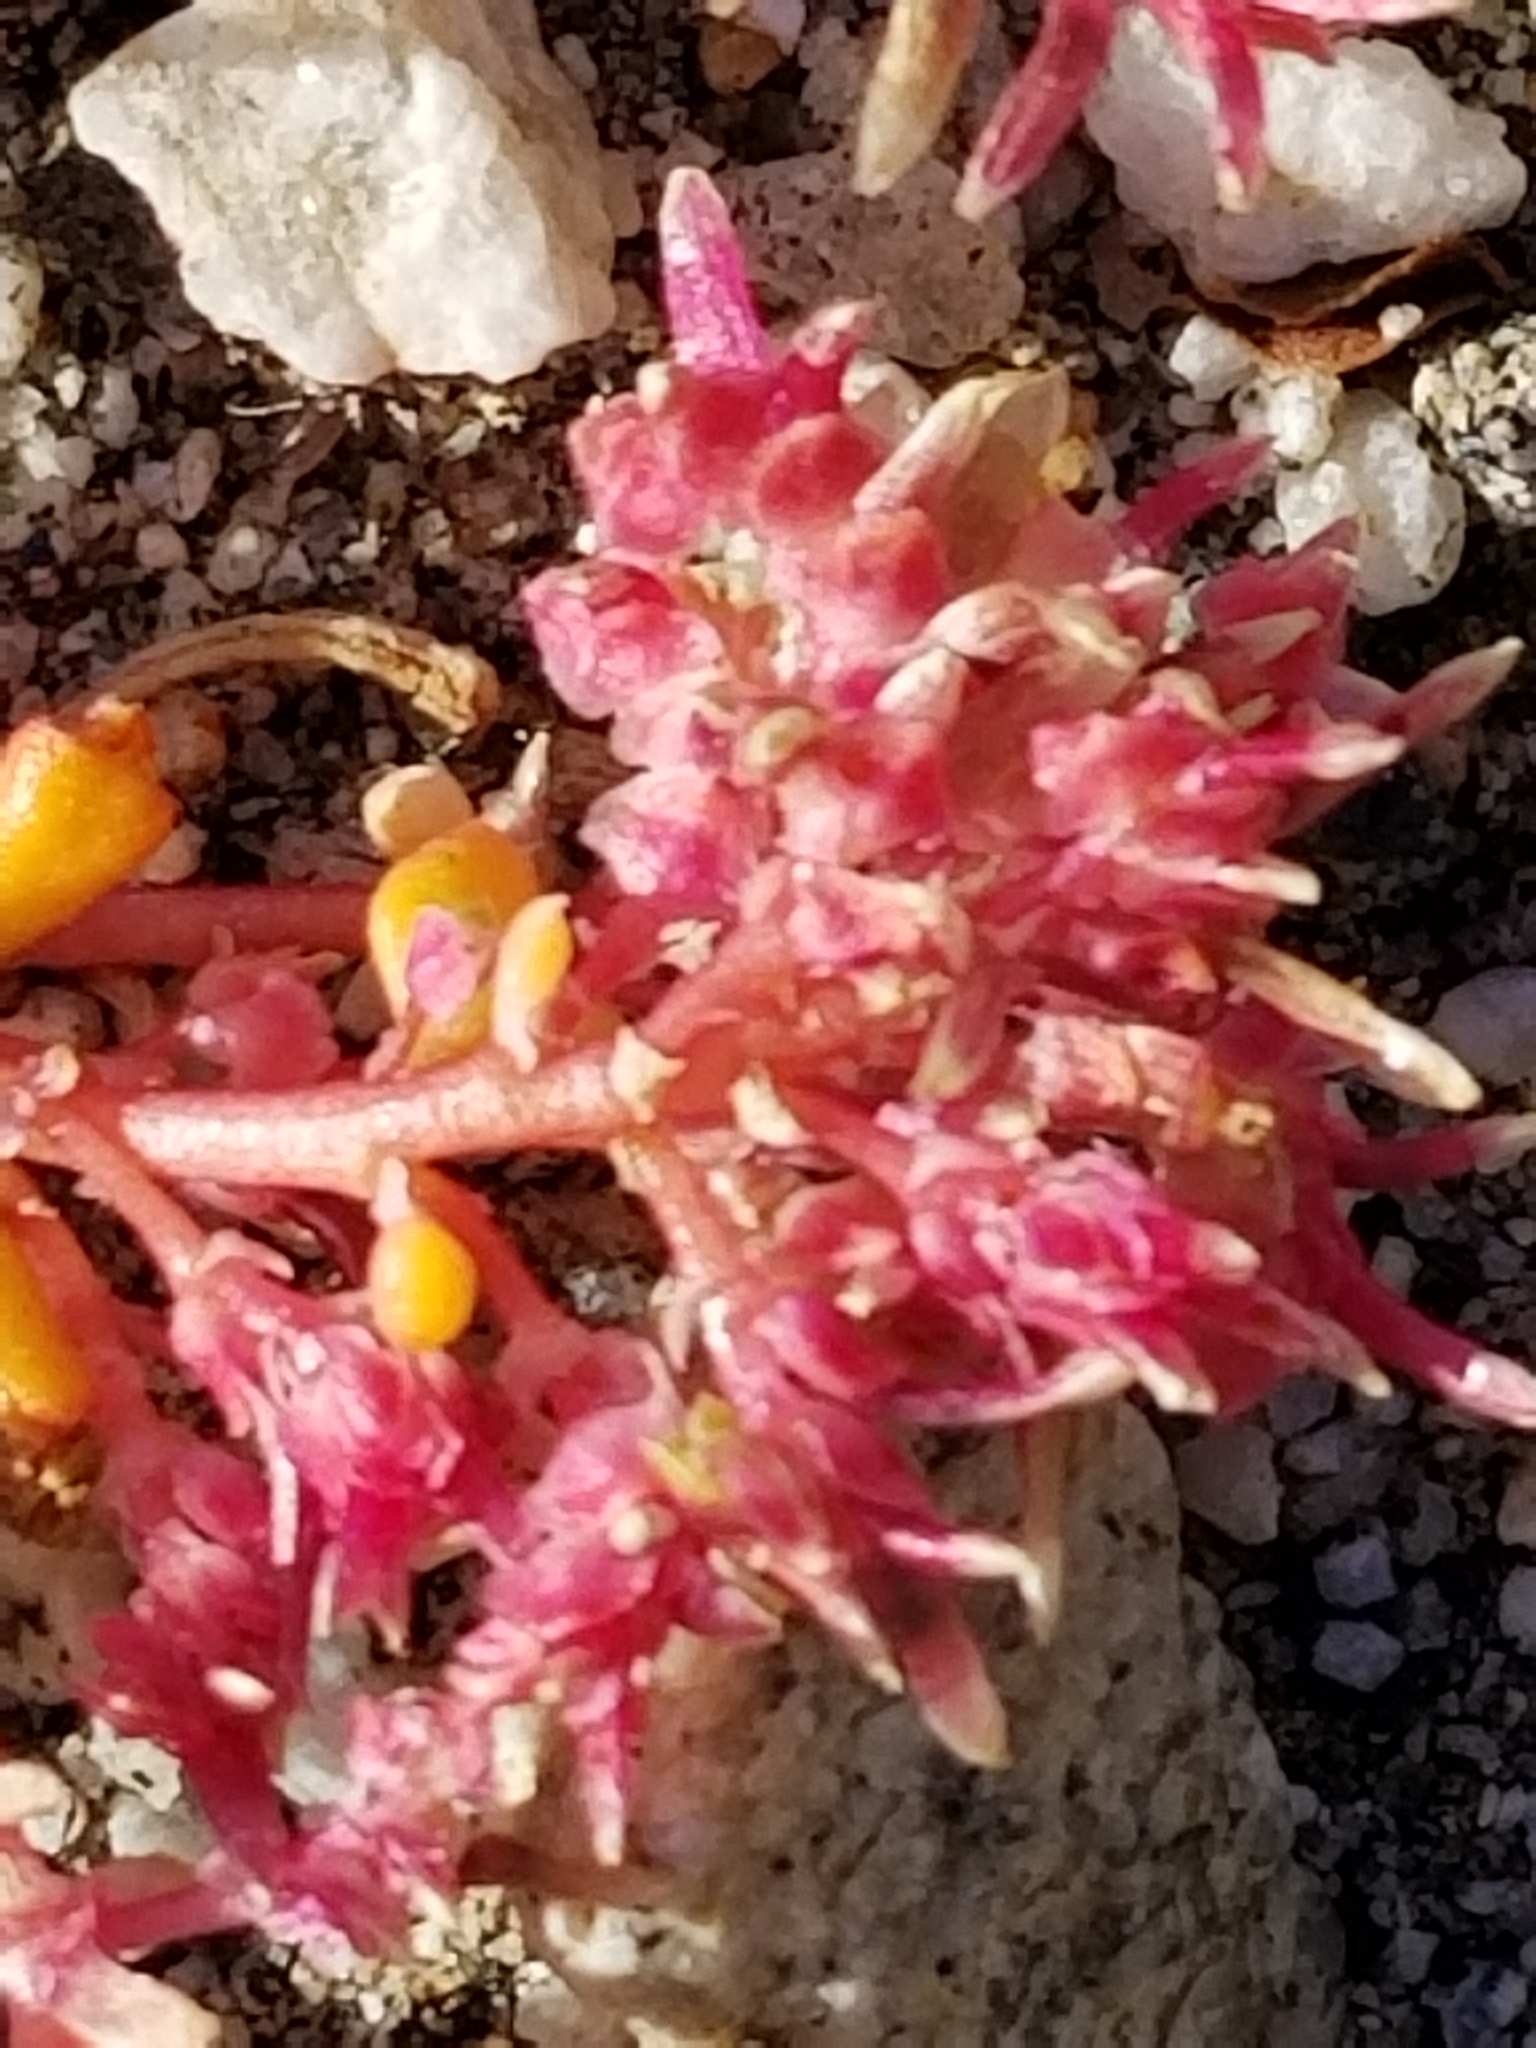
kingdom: Plantae
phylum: Tracheophyta
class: Magnoliopsida
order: Caryophyllales
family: Montiaceae
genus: Calyptridium
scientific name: Calyptridium monandrum
